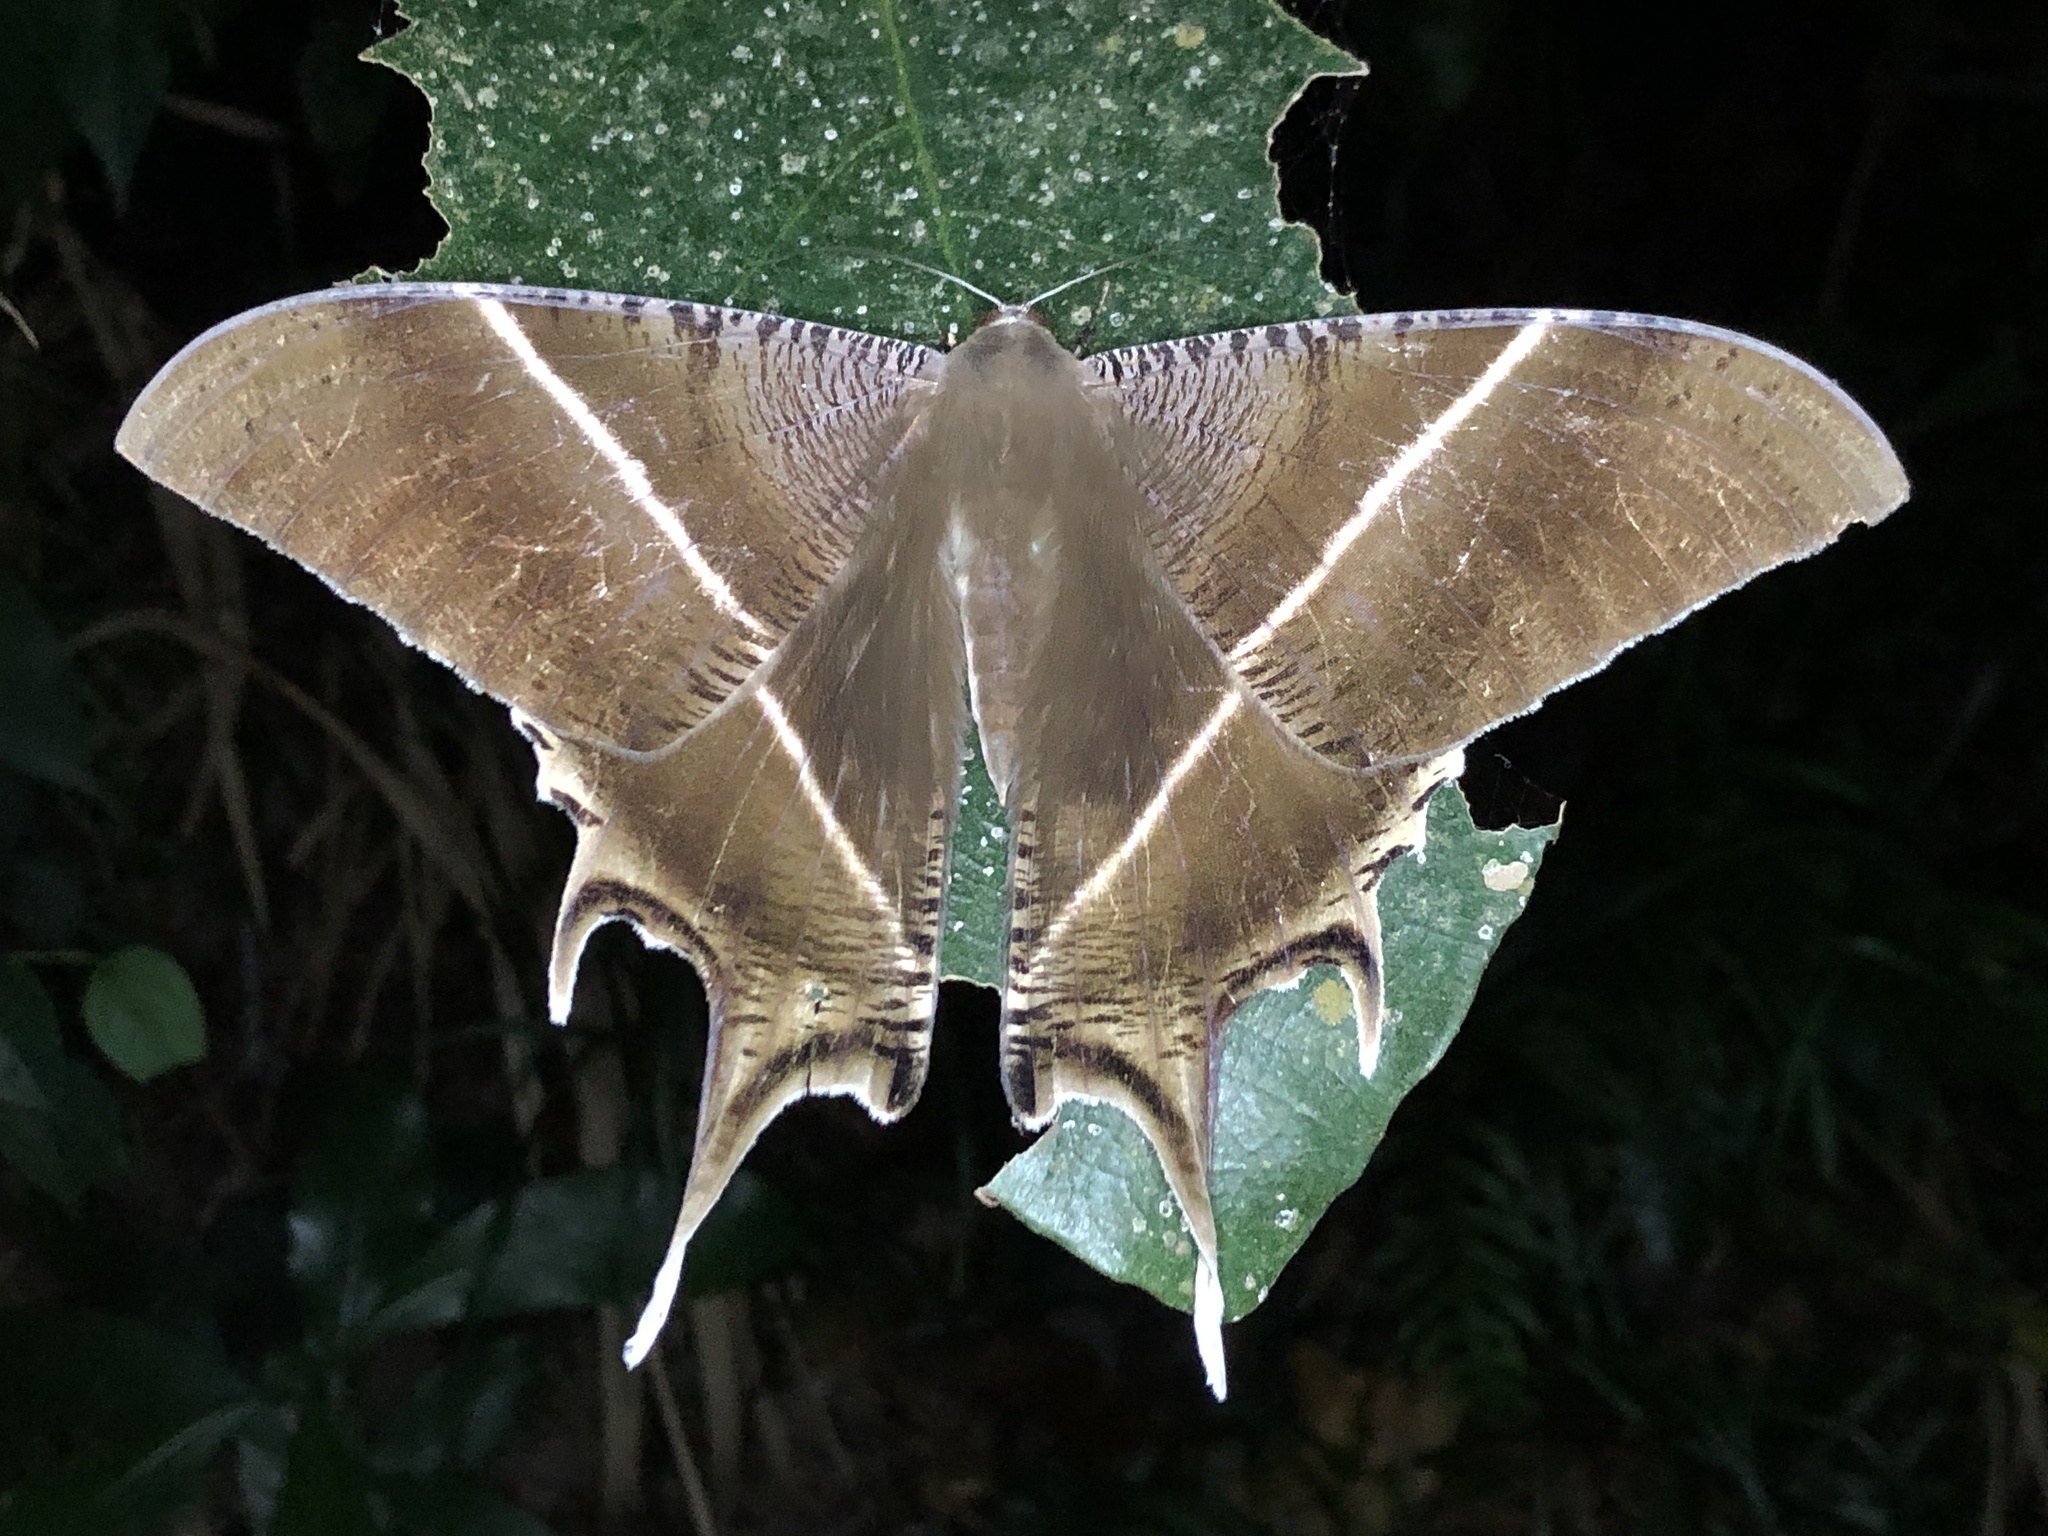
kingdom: Animalia
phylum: Arthropoda
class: Insecta
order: Lepidoptera
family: Uraniidae
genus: Lyssa
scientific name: Lyssa zampa
